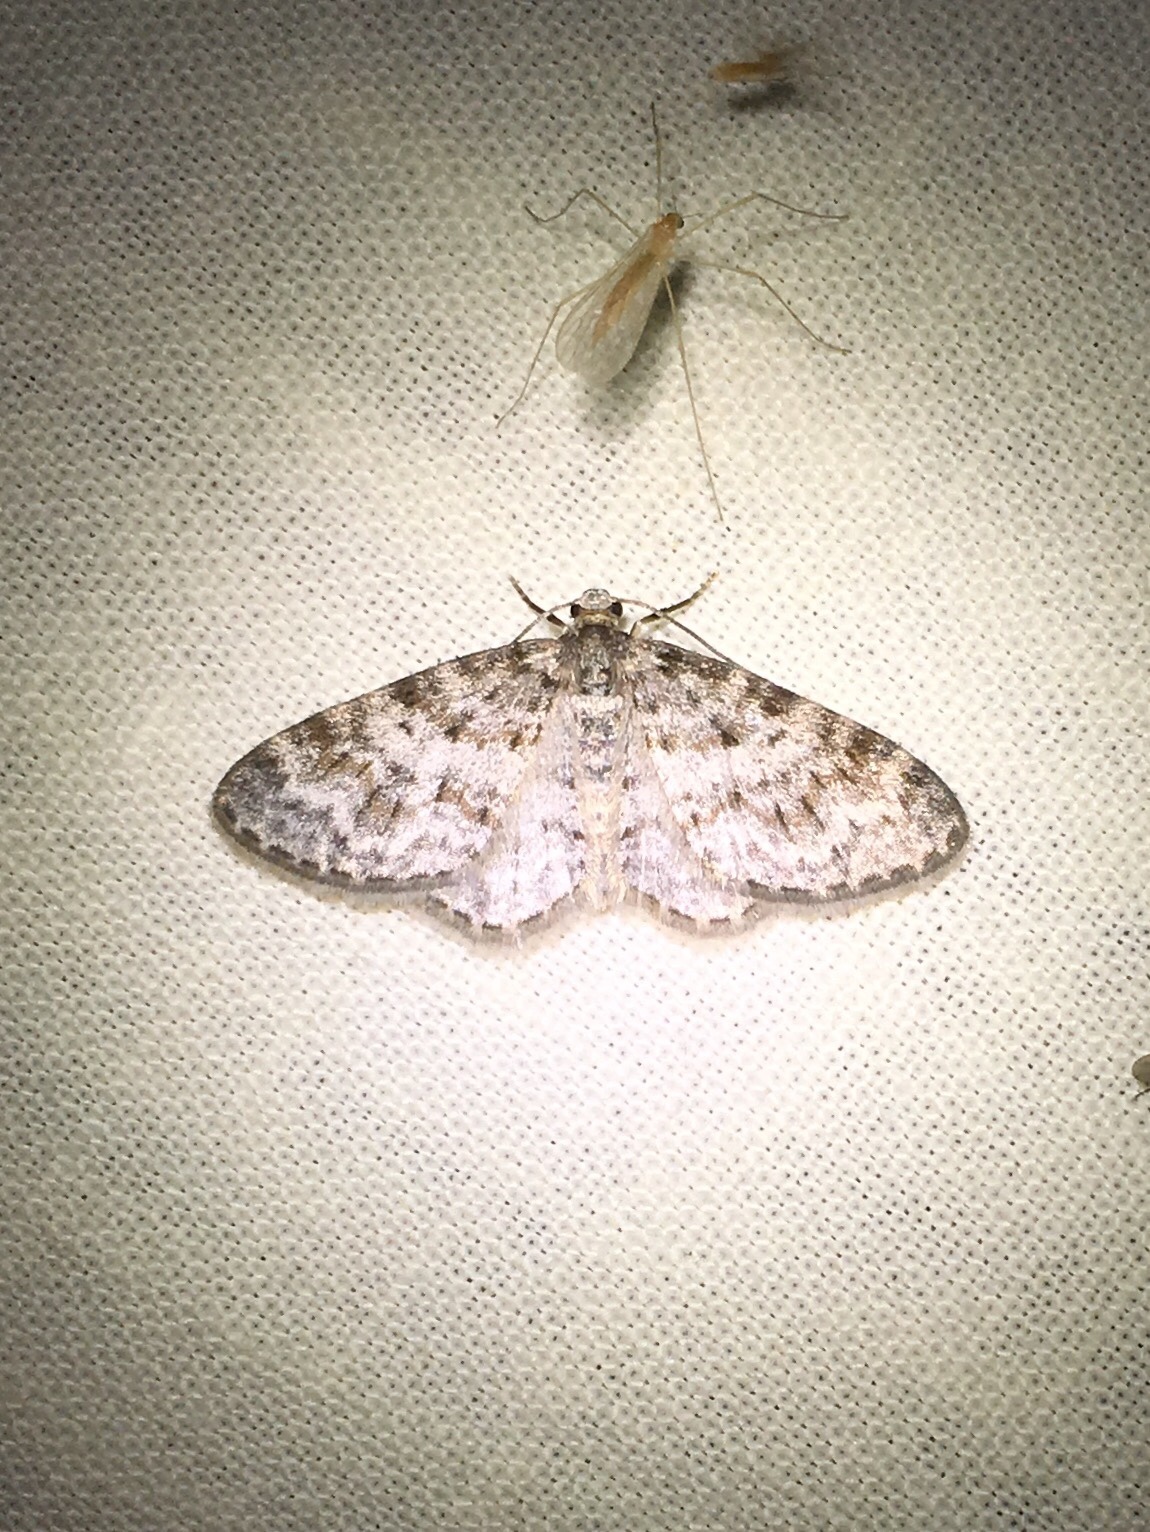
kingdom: Animalia
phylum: Arthropoda
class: Insecta
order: Lepidoptera
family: Geometridae
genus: Hydrelia
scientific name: Hydrelia inornata
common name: Unadorned carpet moth
